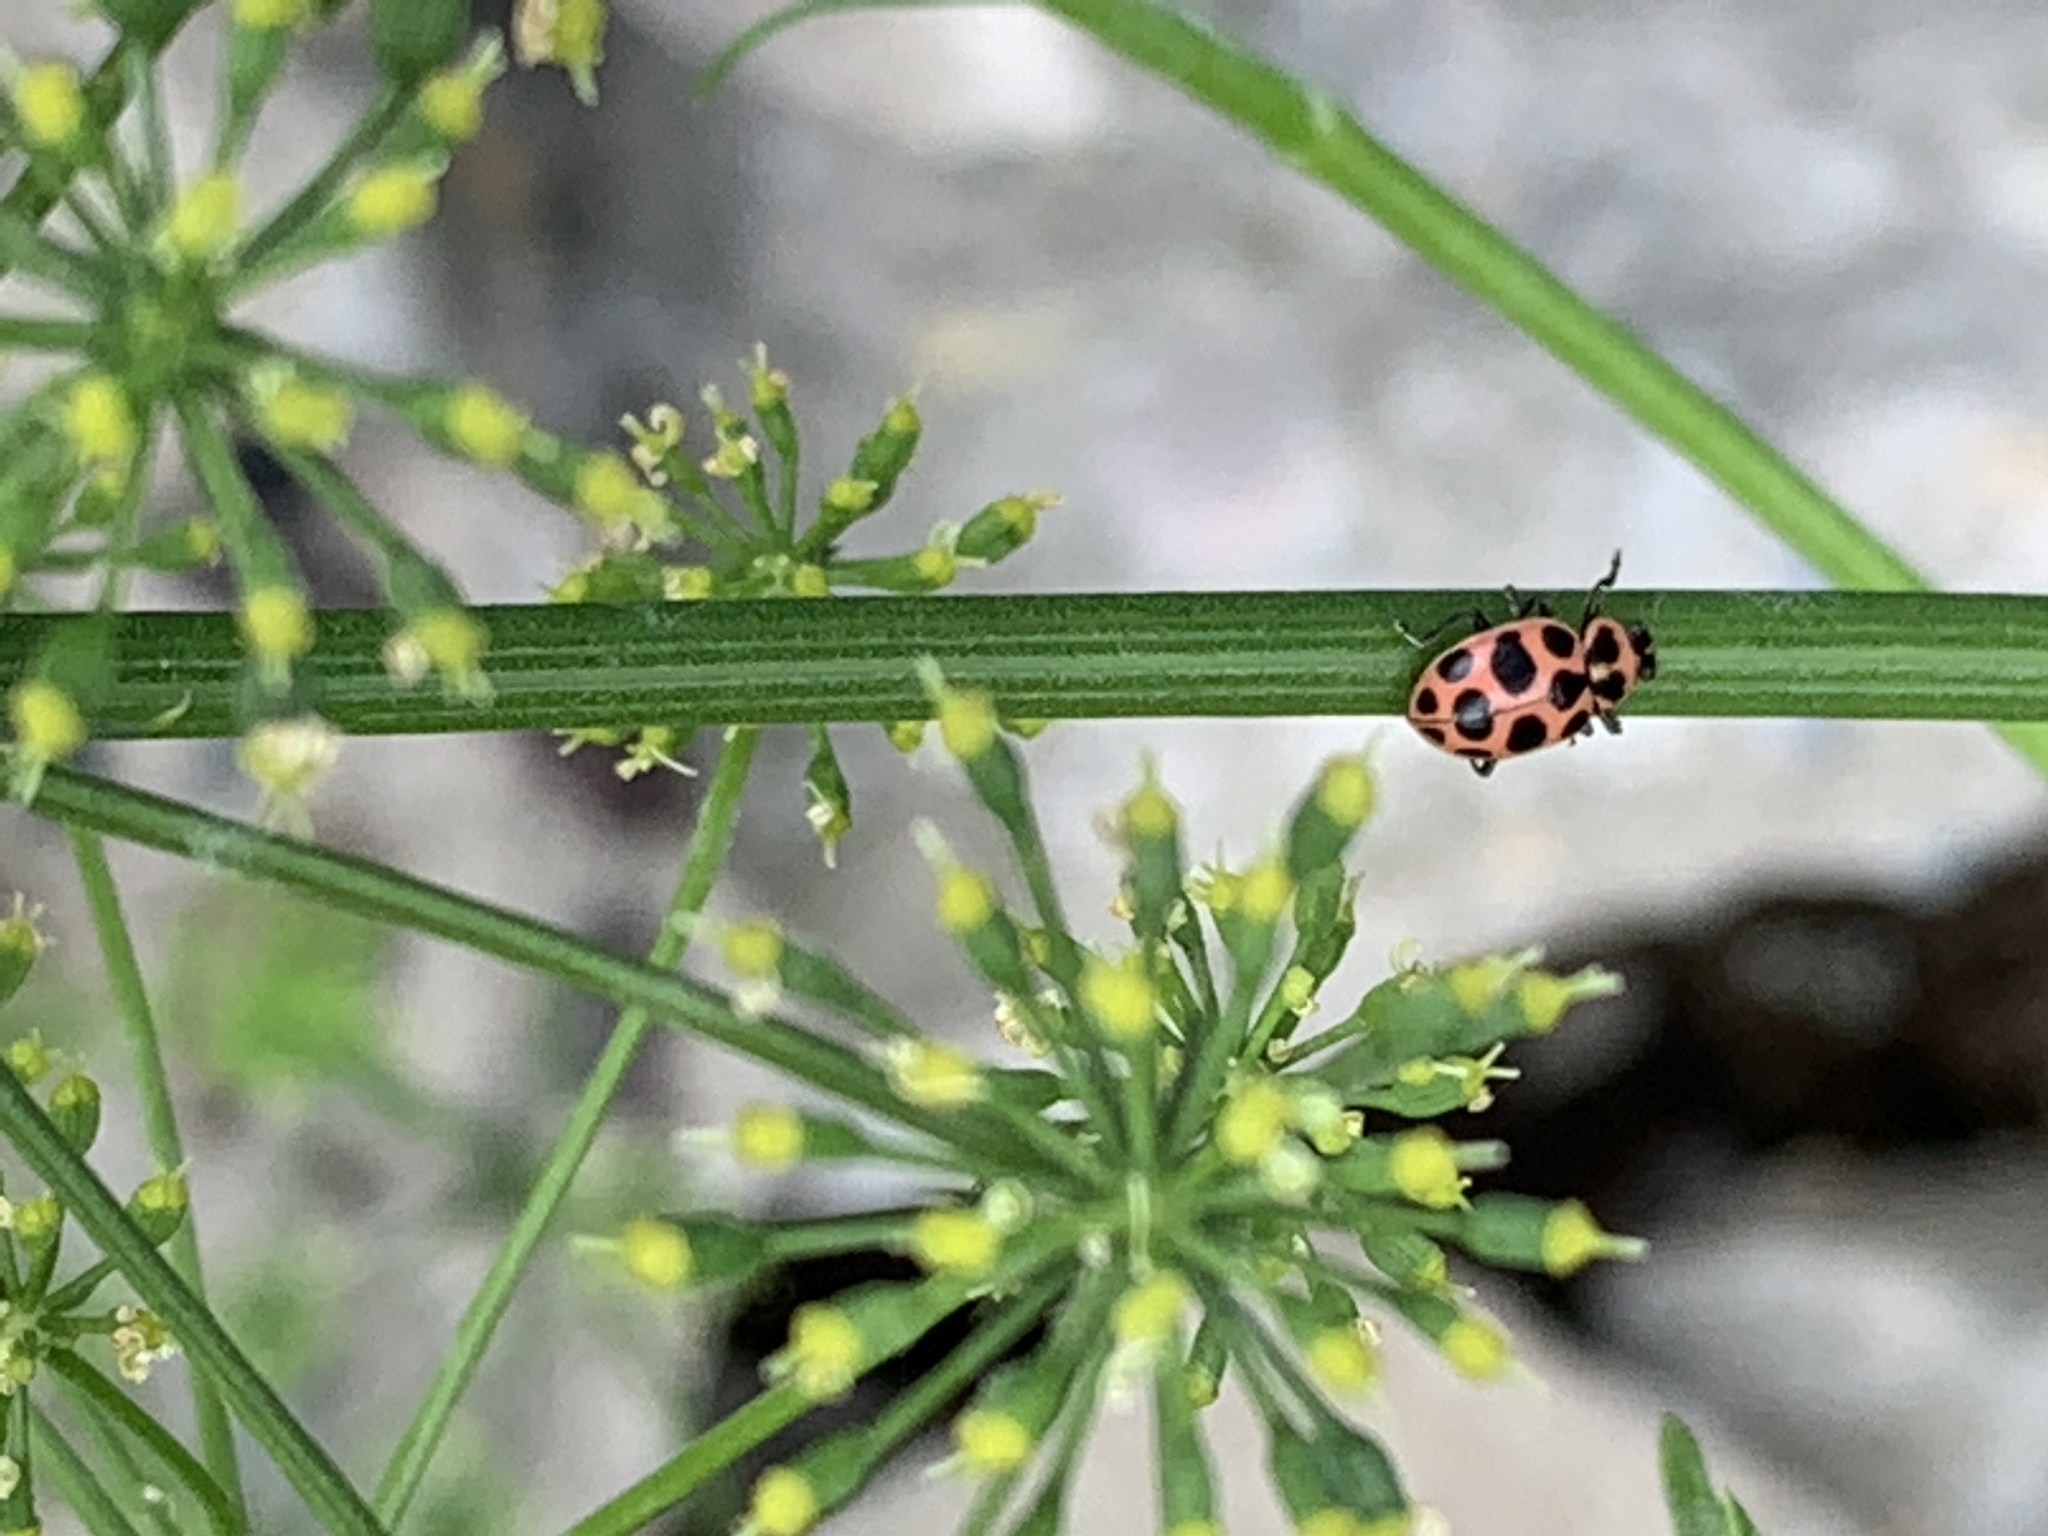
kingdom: Animalia
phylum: Arthropoda
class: Insecta
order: Coleoptera
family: Coccinellidae
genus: Coleomegilla
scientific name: Coleomegilla maculata
